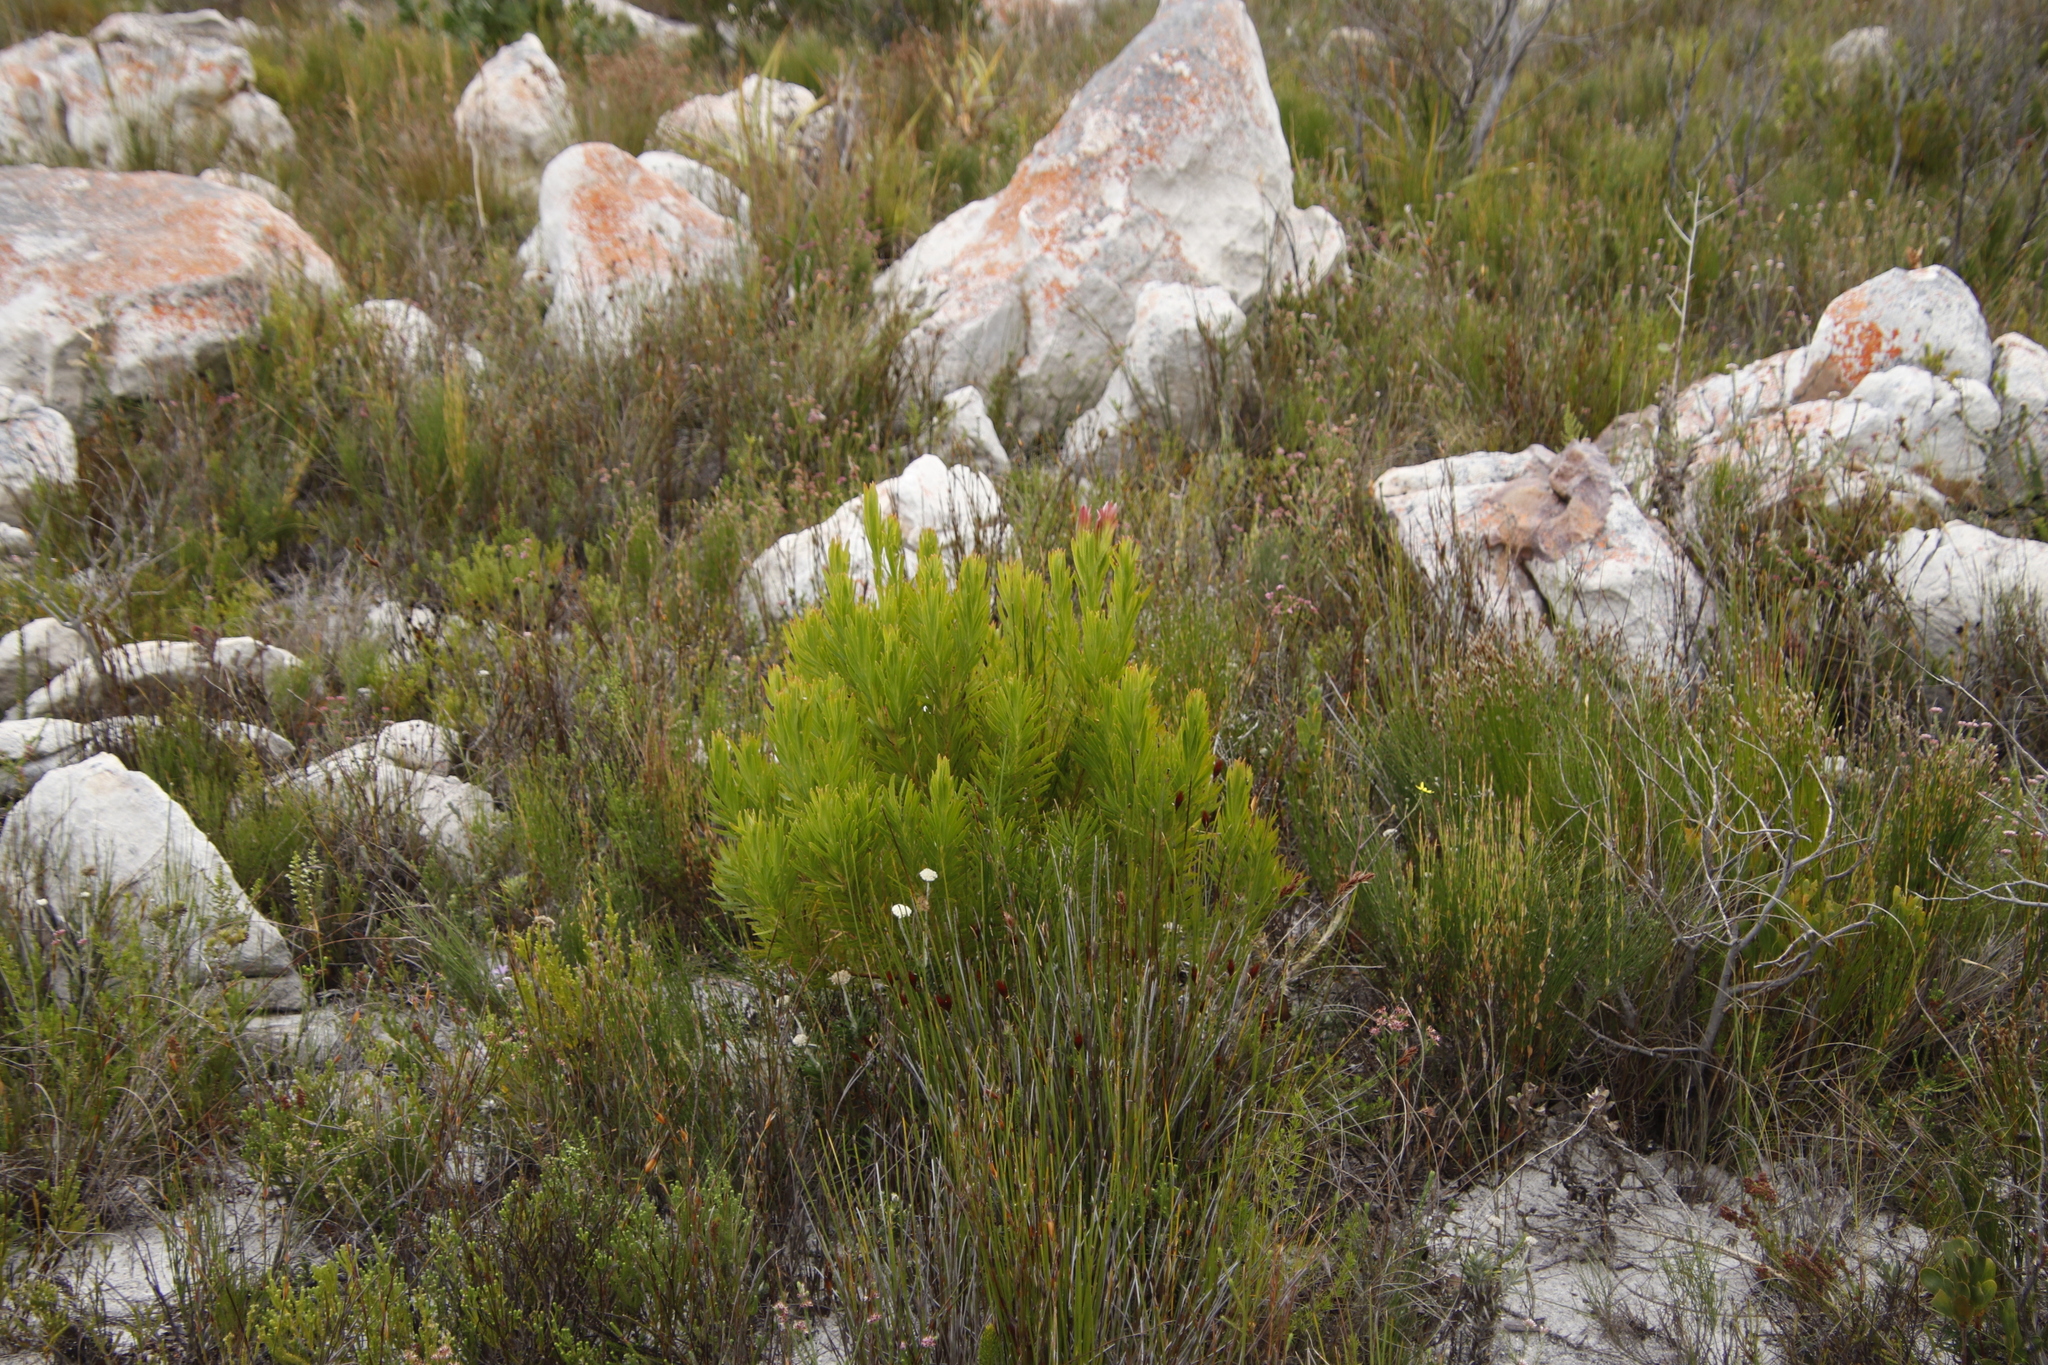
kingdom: Plantae
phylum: Tracheophyta
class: Magnoliopsida
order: Proteales
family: Proteaceae
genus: Leucadendron
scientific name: Leucadendron xanthoconus
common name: Sickle-leaf conebush
